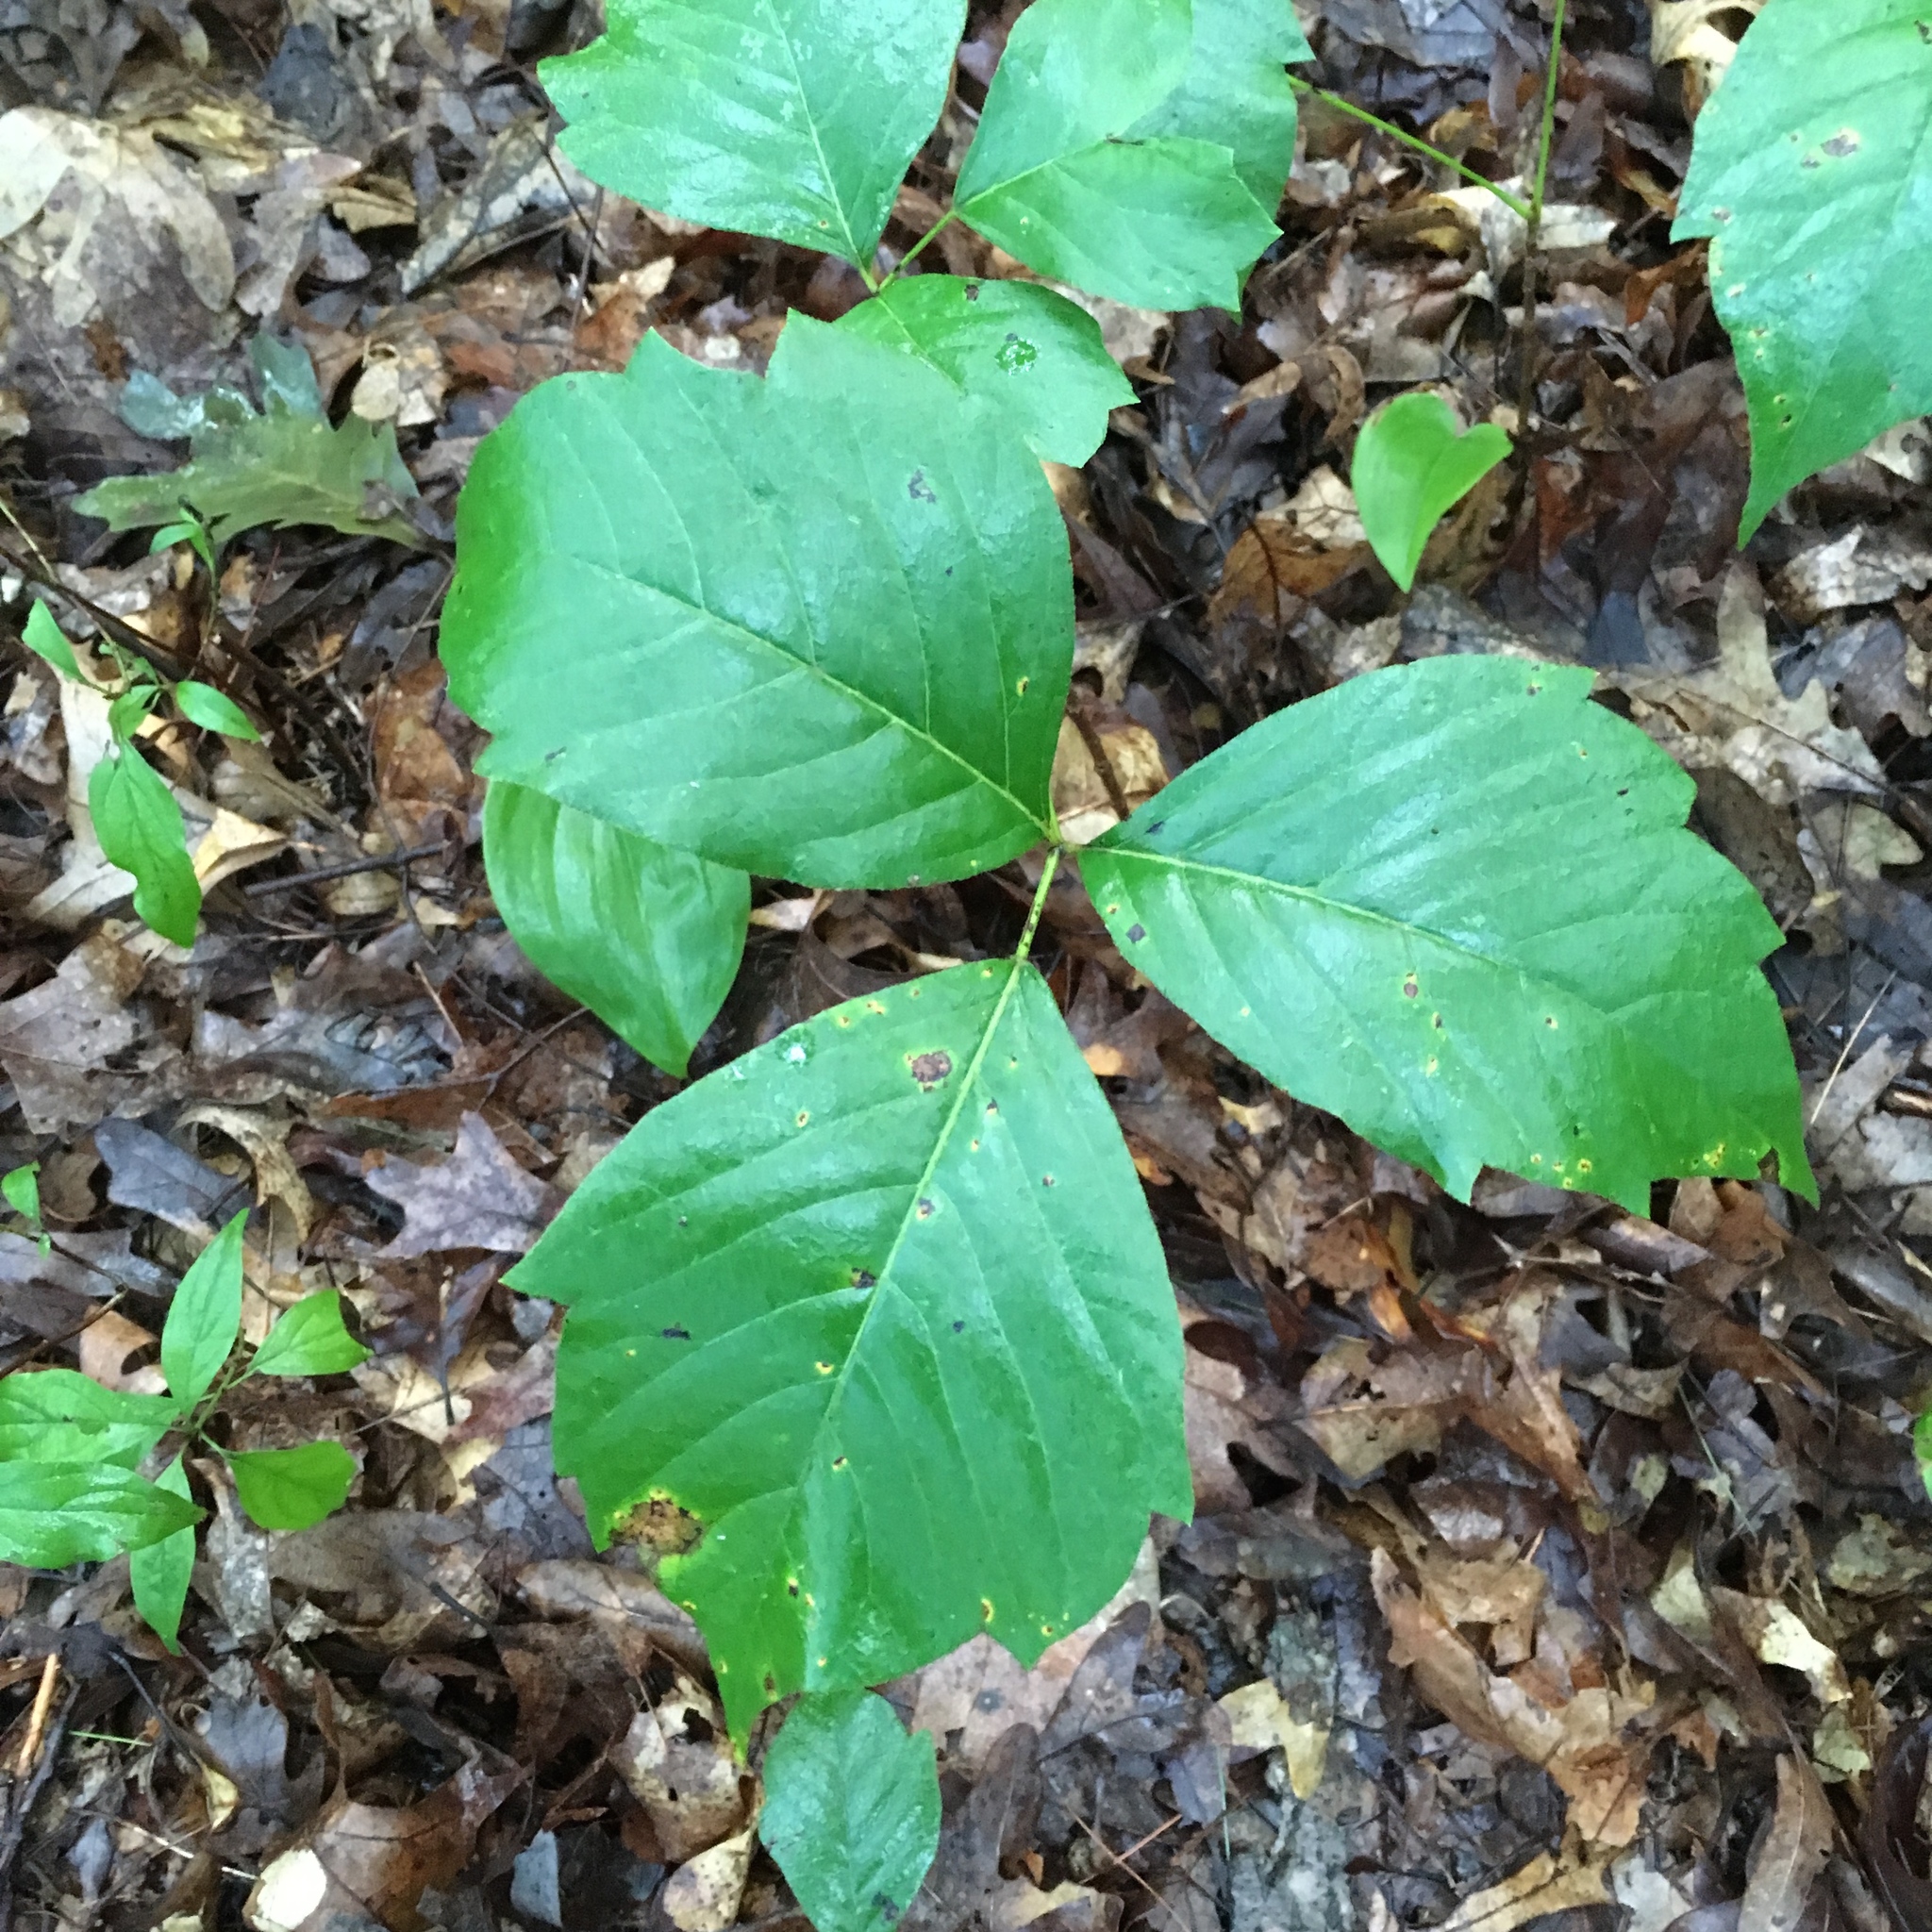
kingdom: Plantae
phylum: Tracheophyta
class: Magnoliopsida
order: Sapindales
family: Anacardiaceae
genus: Toxicodendron
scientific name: Toxicodendron rydbergii
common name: Rydberg's poison-ivy
